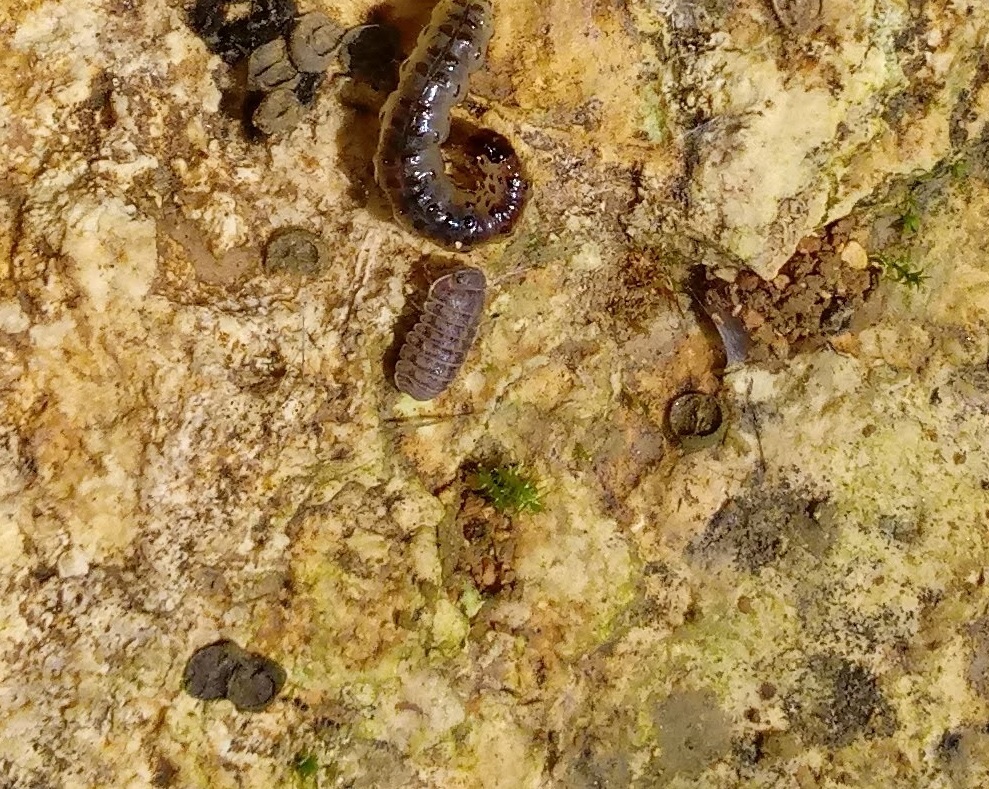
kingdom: Animalia
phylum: Arthropoda
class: Malacostraca
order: Isopoda
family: Armadillidae
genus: Armadillo
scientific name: Armadillo officinalis
